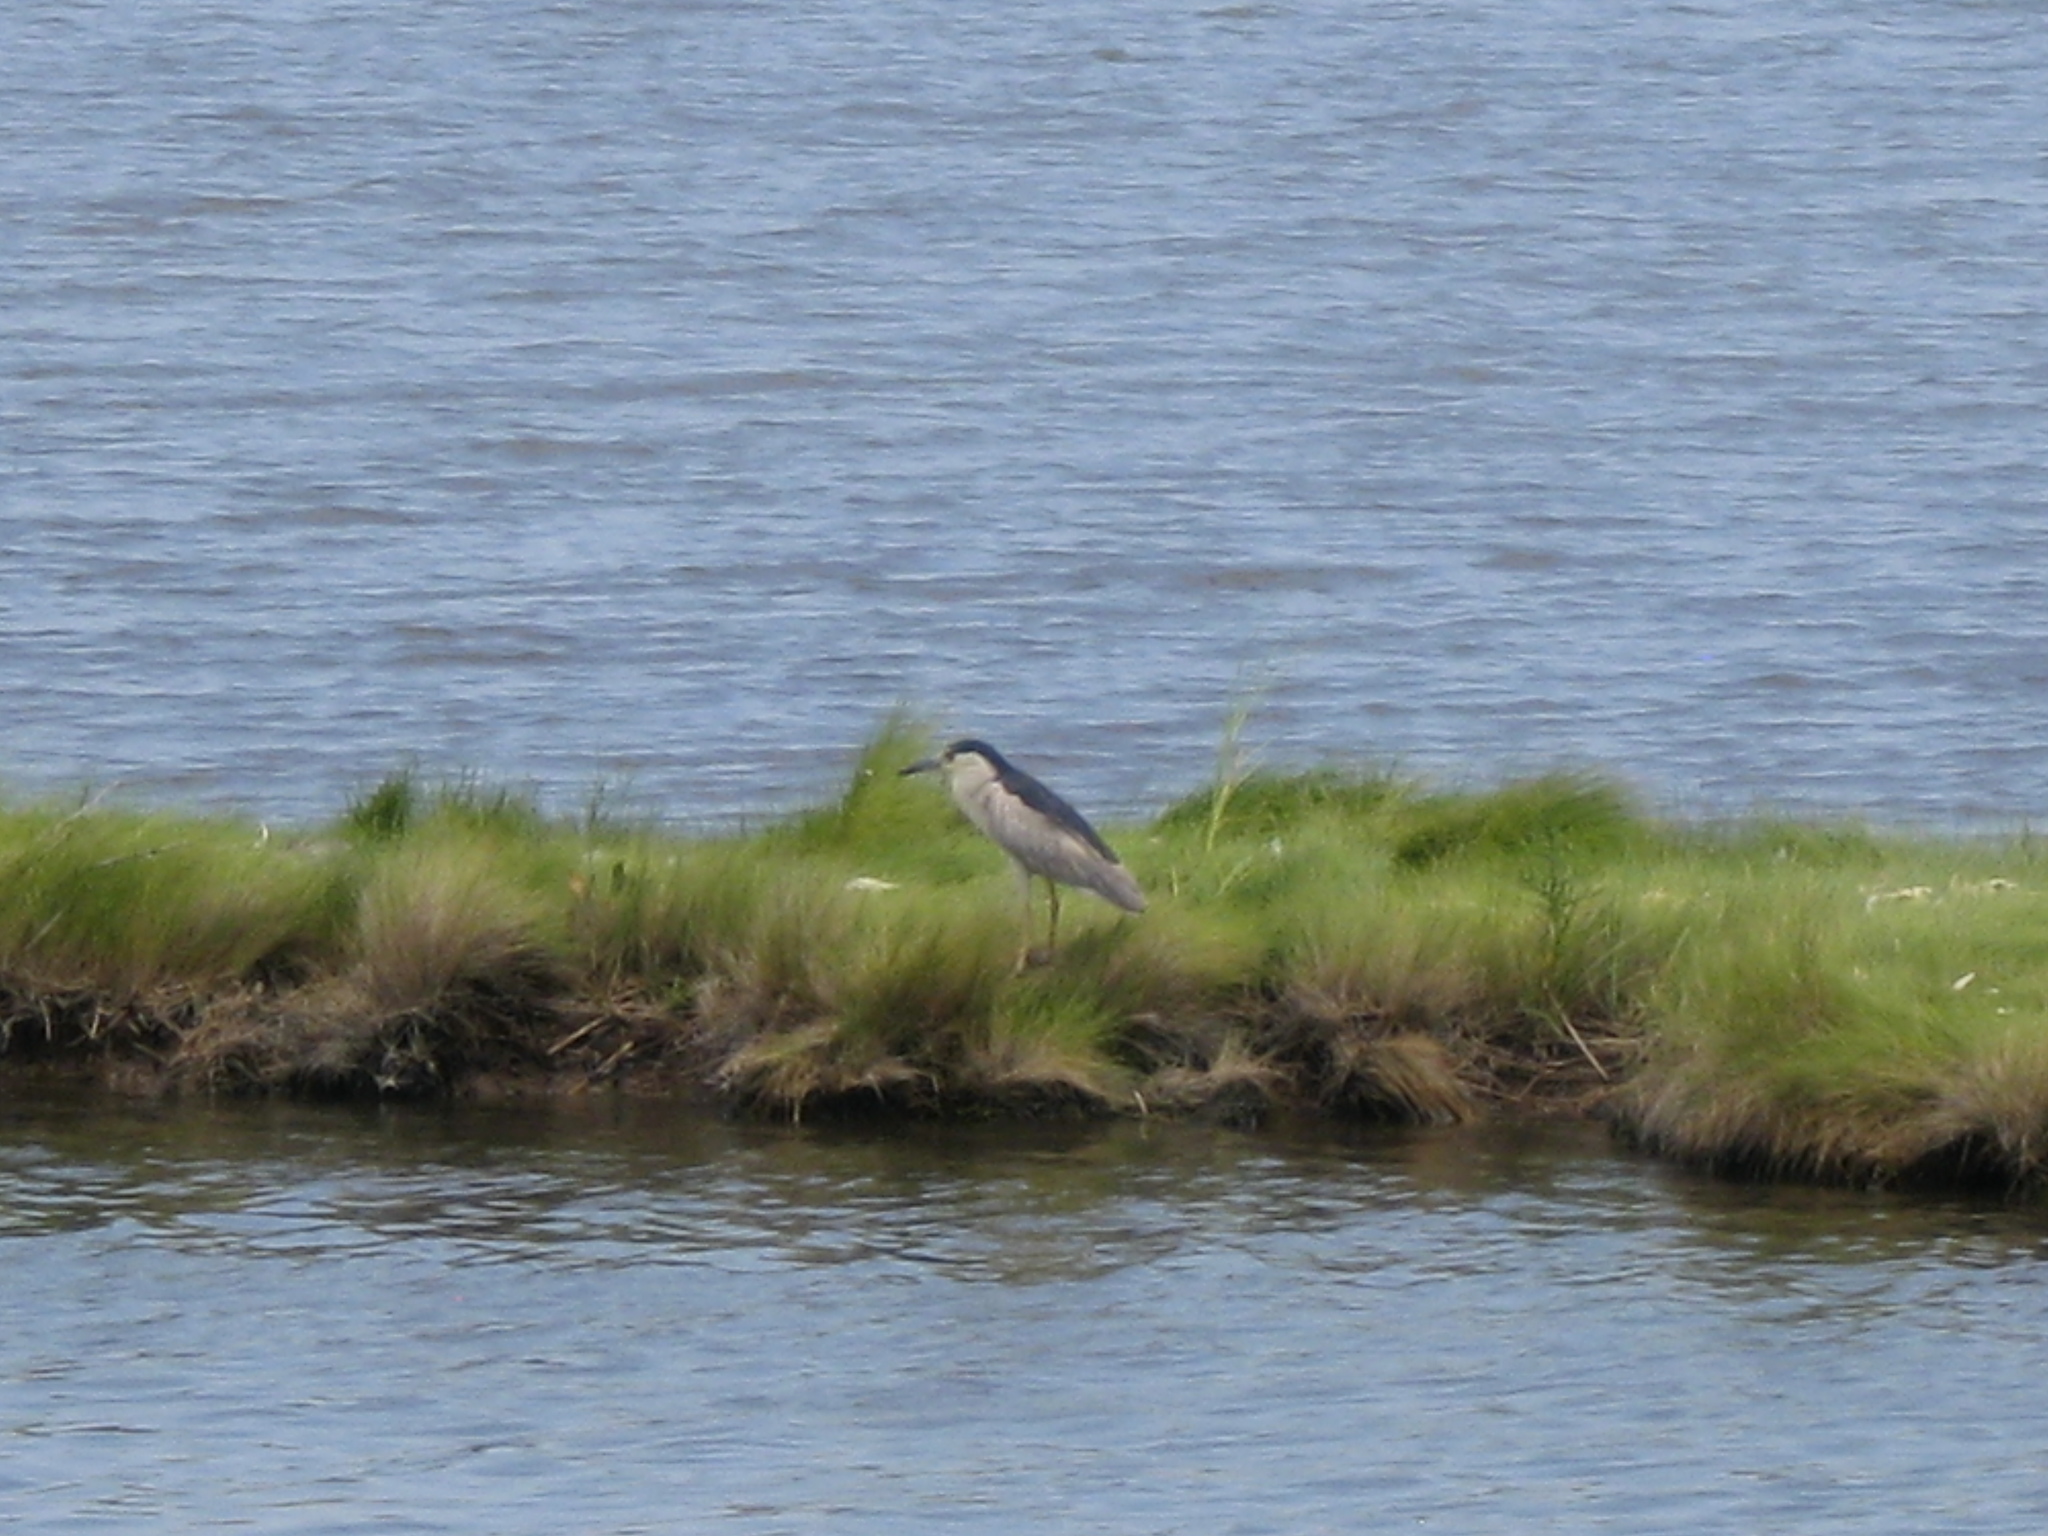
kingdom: Animalia
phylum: Chordata
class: Aves
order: Pelecaniformes
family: Ardeidae
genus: Nycticorax
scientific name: Nycticorax nycticorax
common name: Black-crowned night heron
